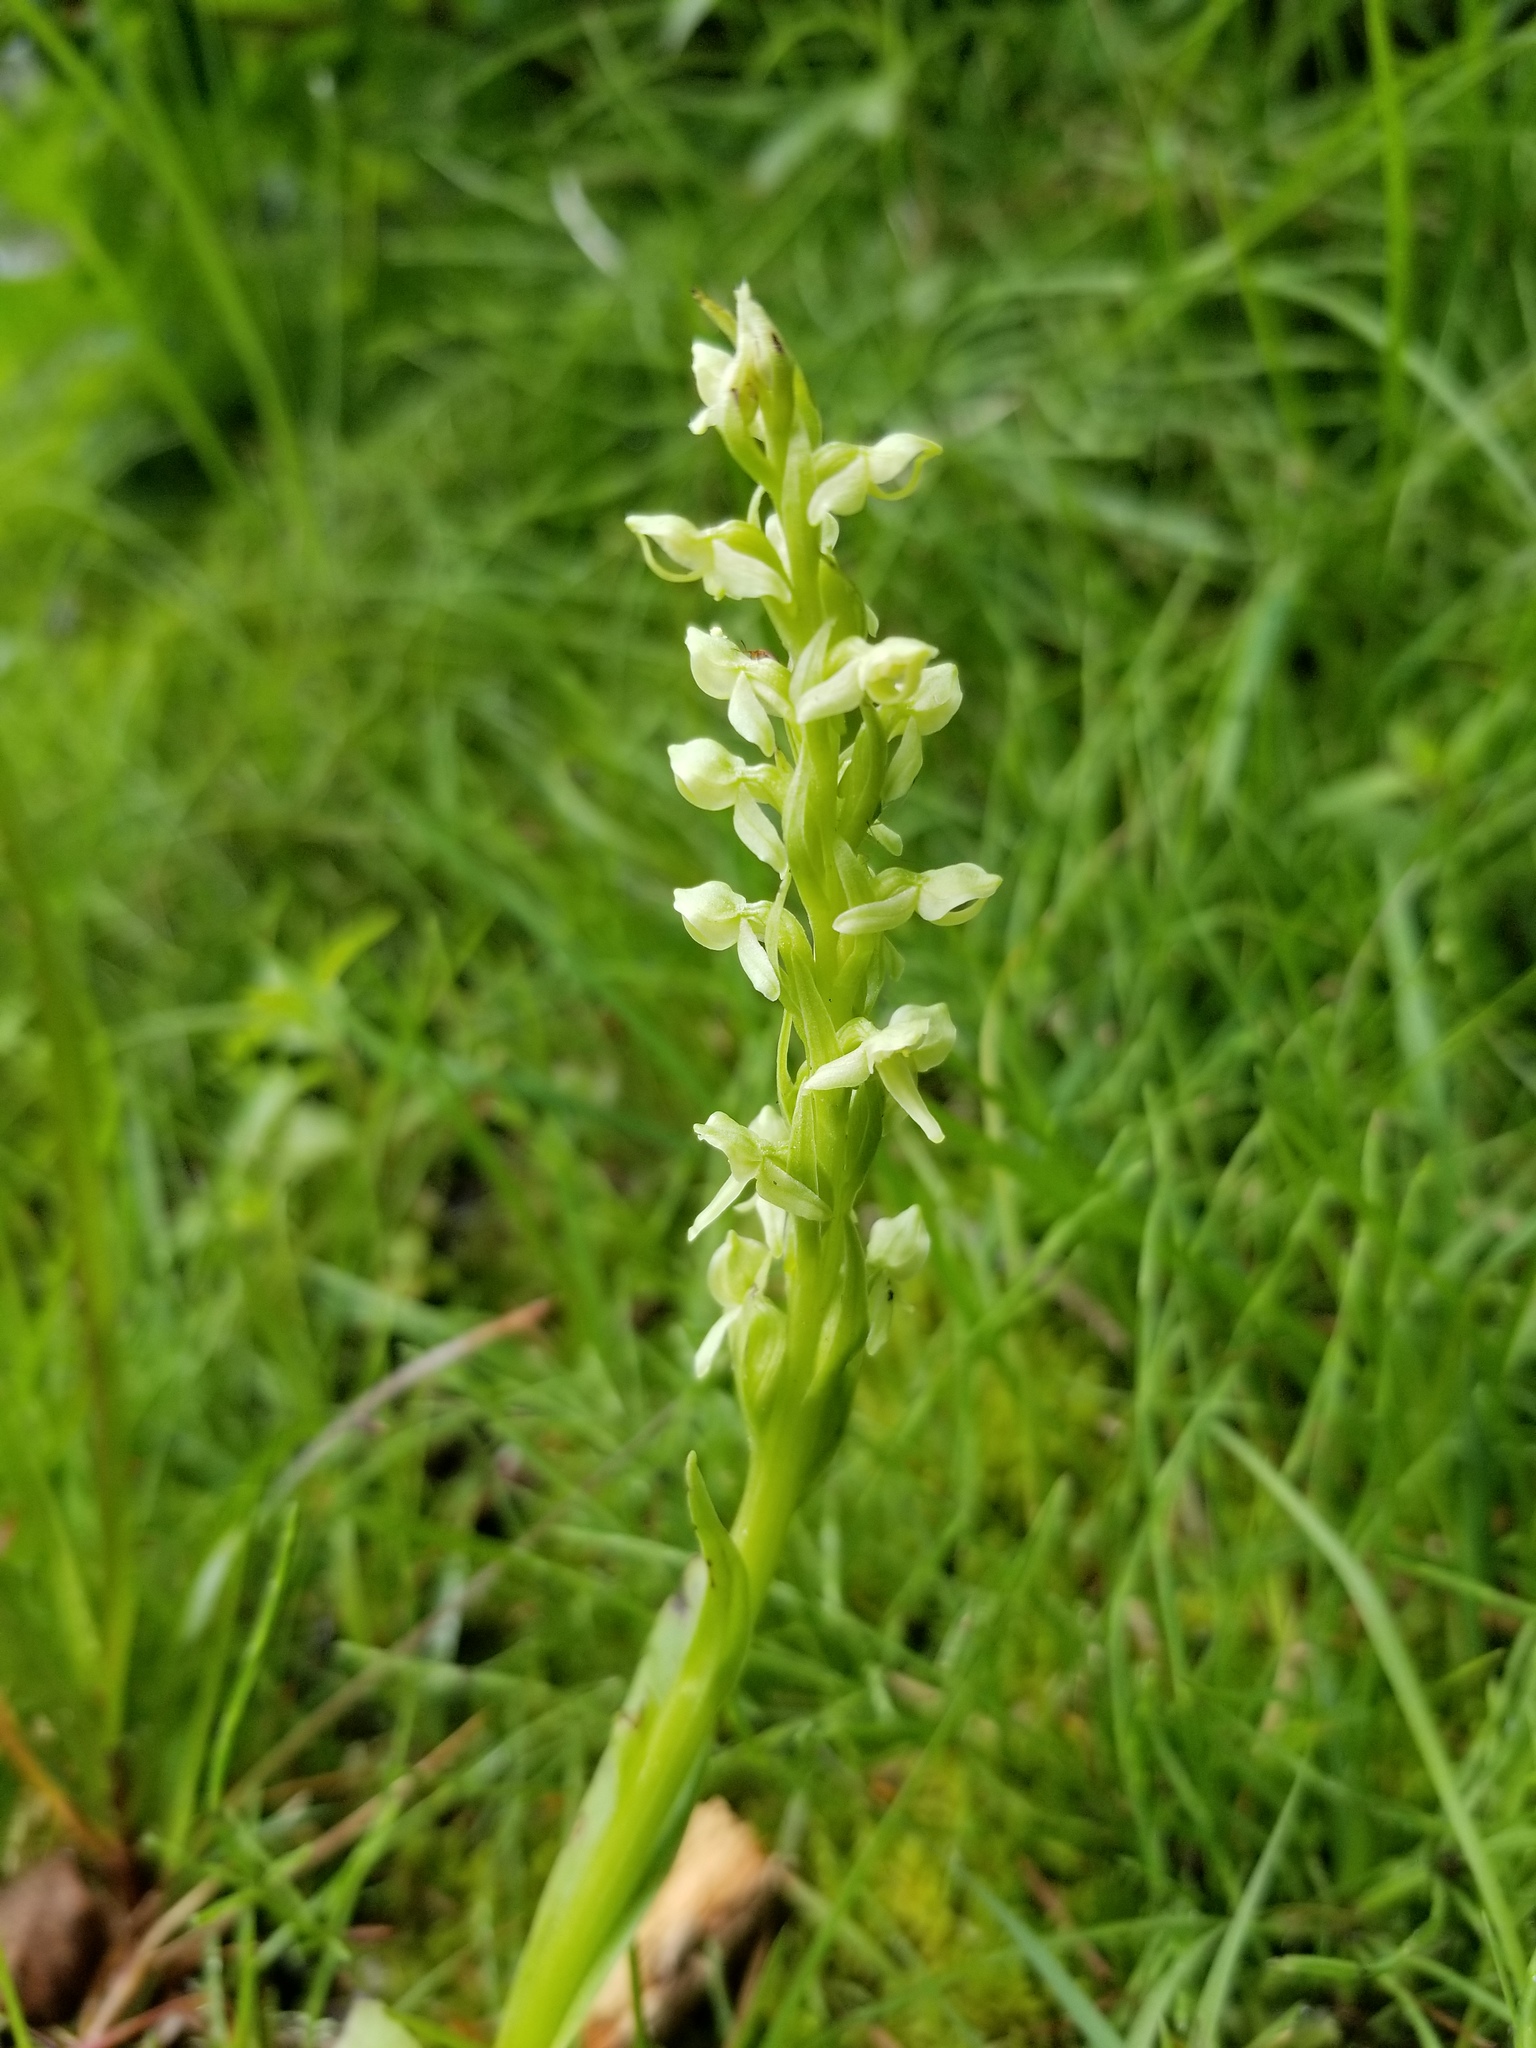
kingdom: Plantae
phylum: Tracheophyta
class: Liliopsida
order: Asparagales
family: Orchidaceae
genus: Platanthera
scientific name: Platanthera huronensis
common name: Fragrant green orchid
